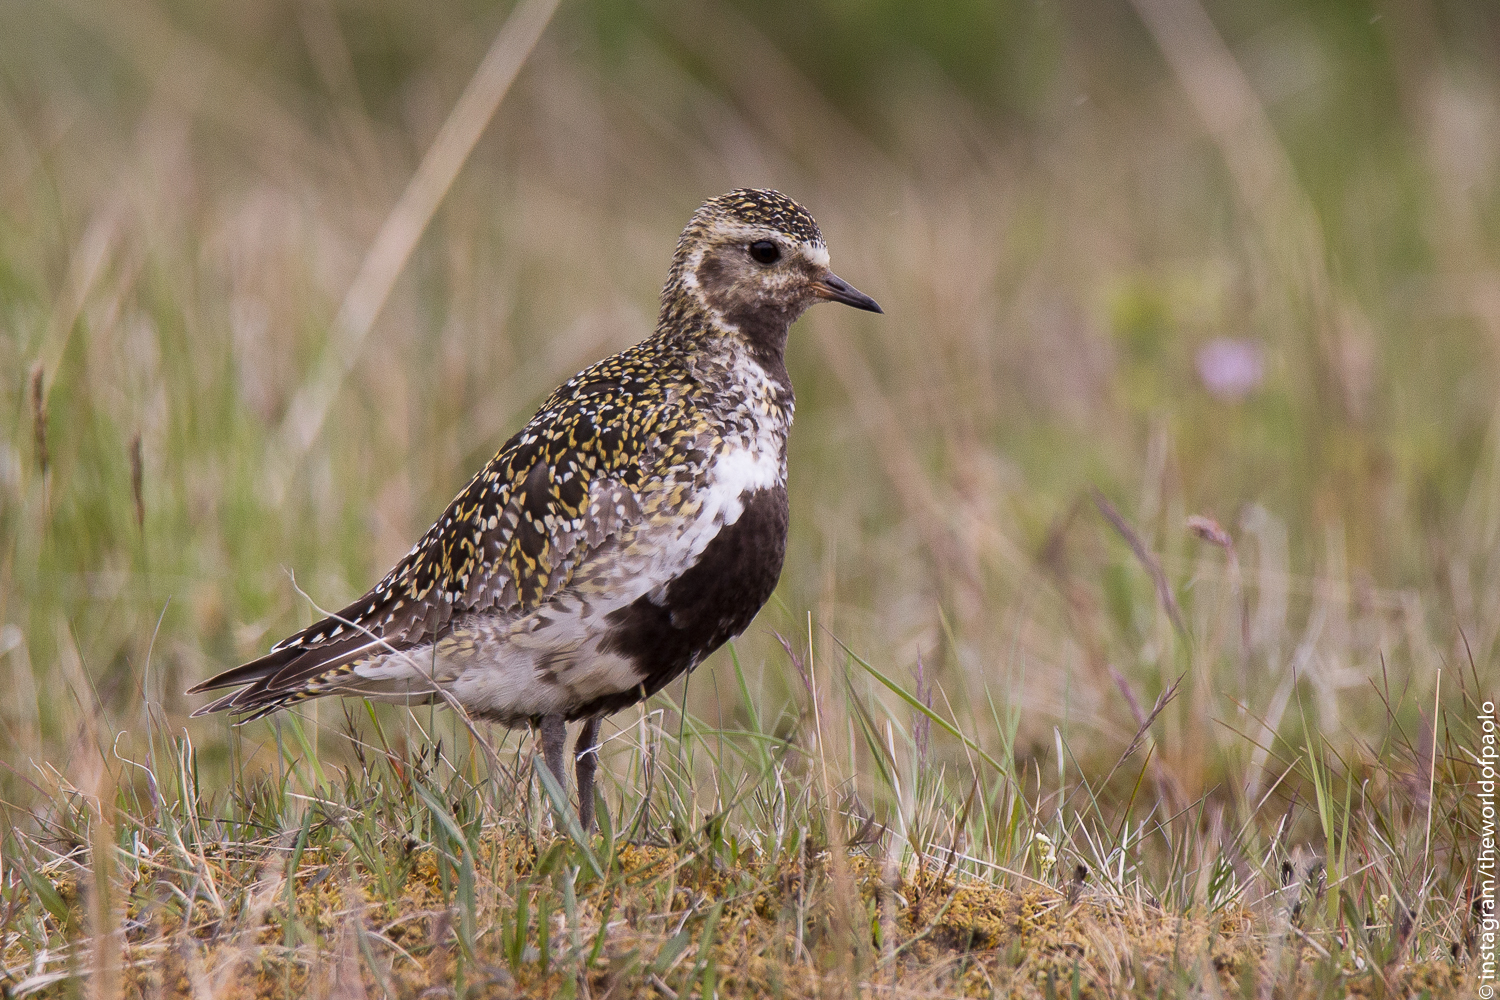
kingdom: Animalia
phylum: Chordata
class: Aves
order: Charadriiformes
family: Charadriidae
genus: Pluvialis
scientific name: Pluvialis apricaria
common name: European golden plover
